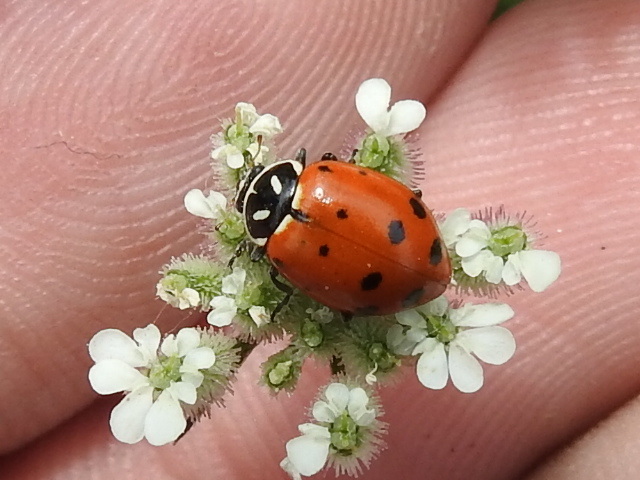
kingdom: Animalia
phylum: Arthropoda
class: Insecta
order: Coleoptera
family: Coccinellidae
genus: Hippodamia
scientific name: Hippodamia convergens
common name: Convergent lady beetle
